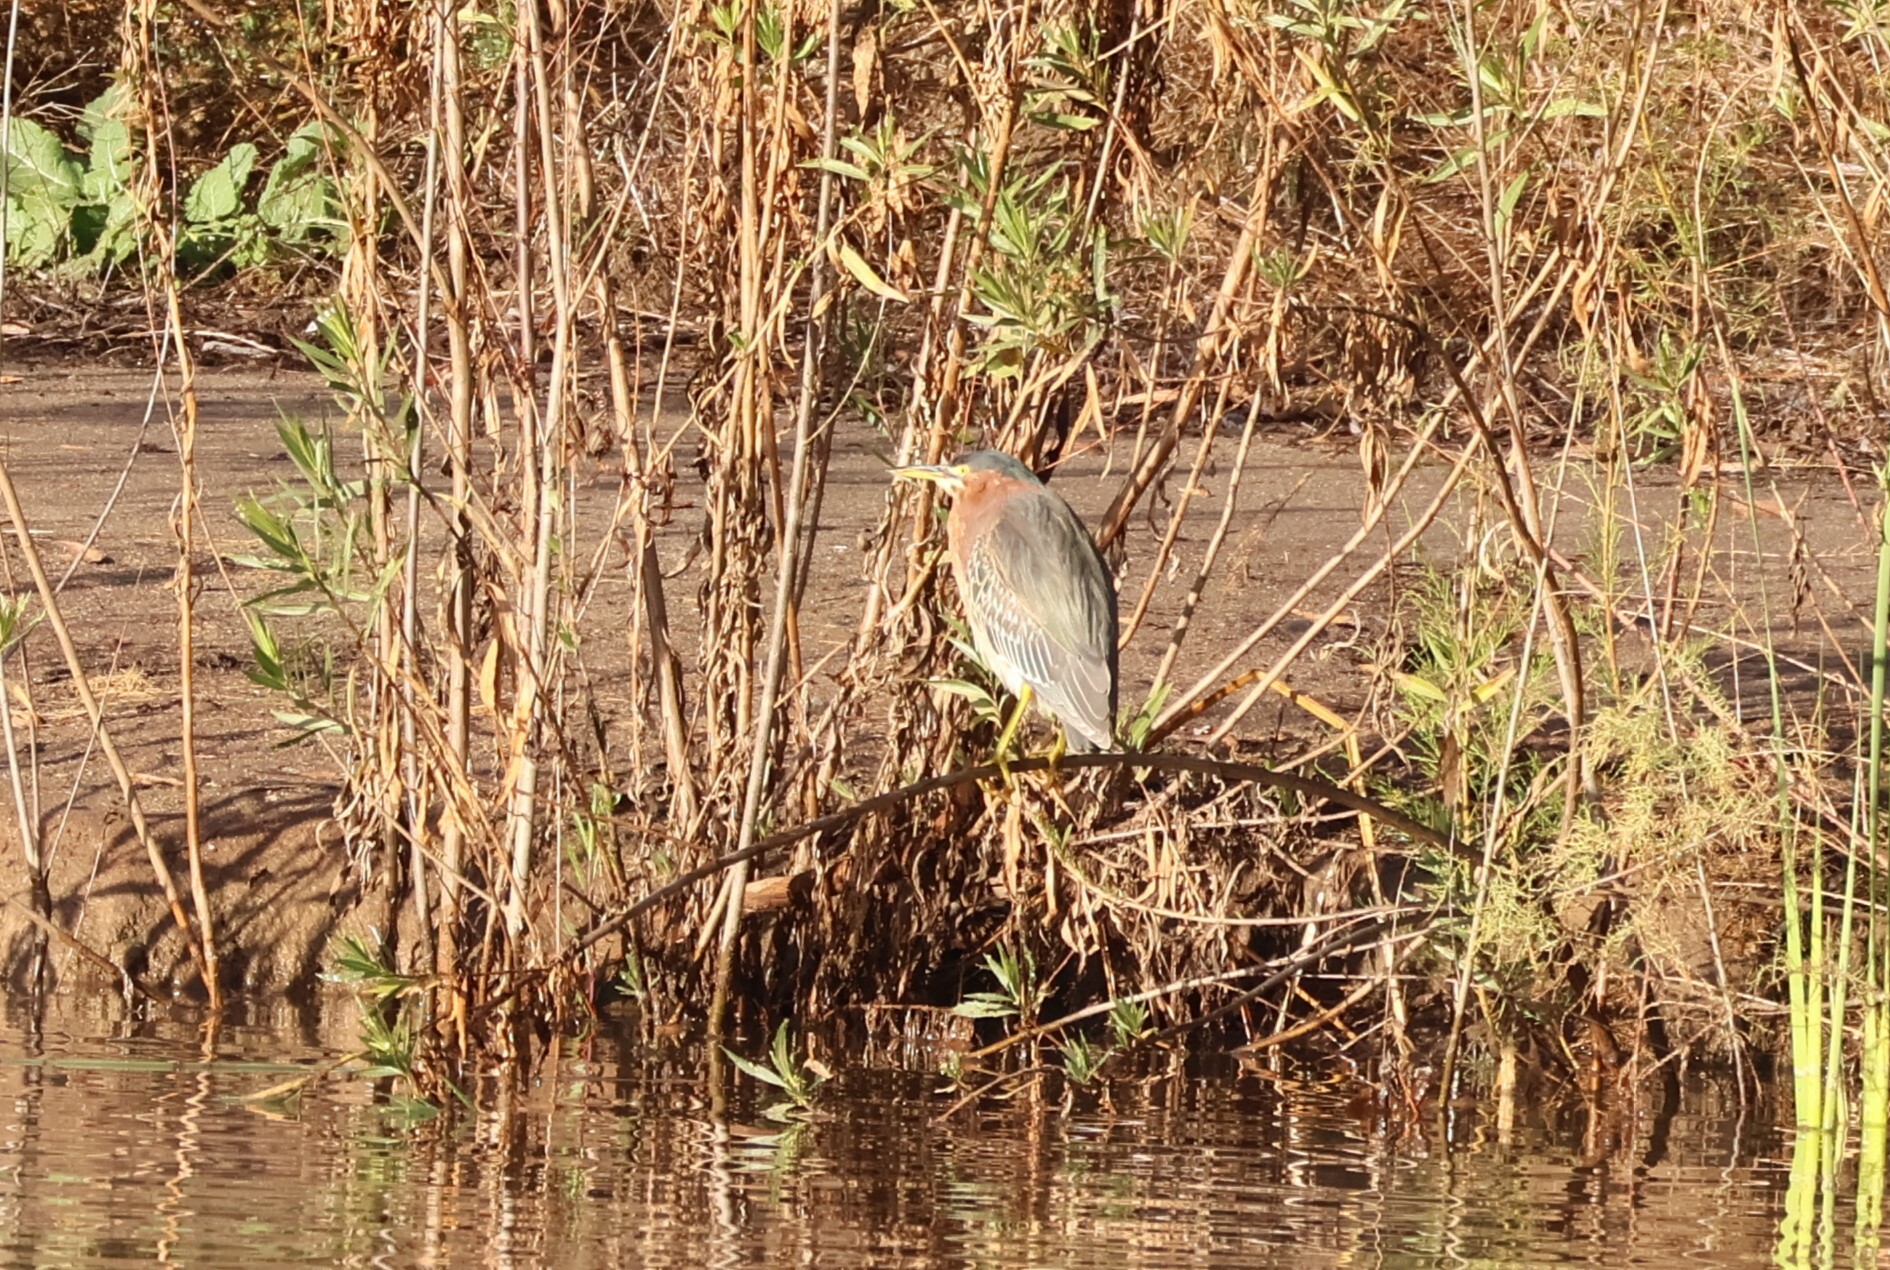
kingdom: Animalia
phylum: Chordata
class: Aves
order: Pelecaniformes
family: Ardeidae
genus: Butorides
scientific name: Butorides virescens
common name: Green heron
